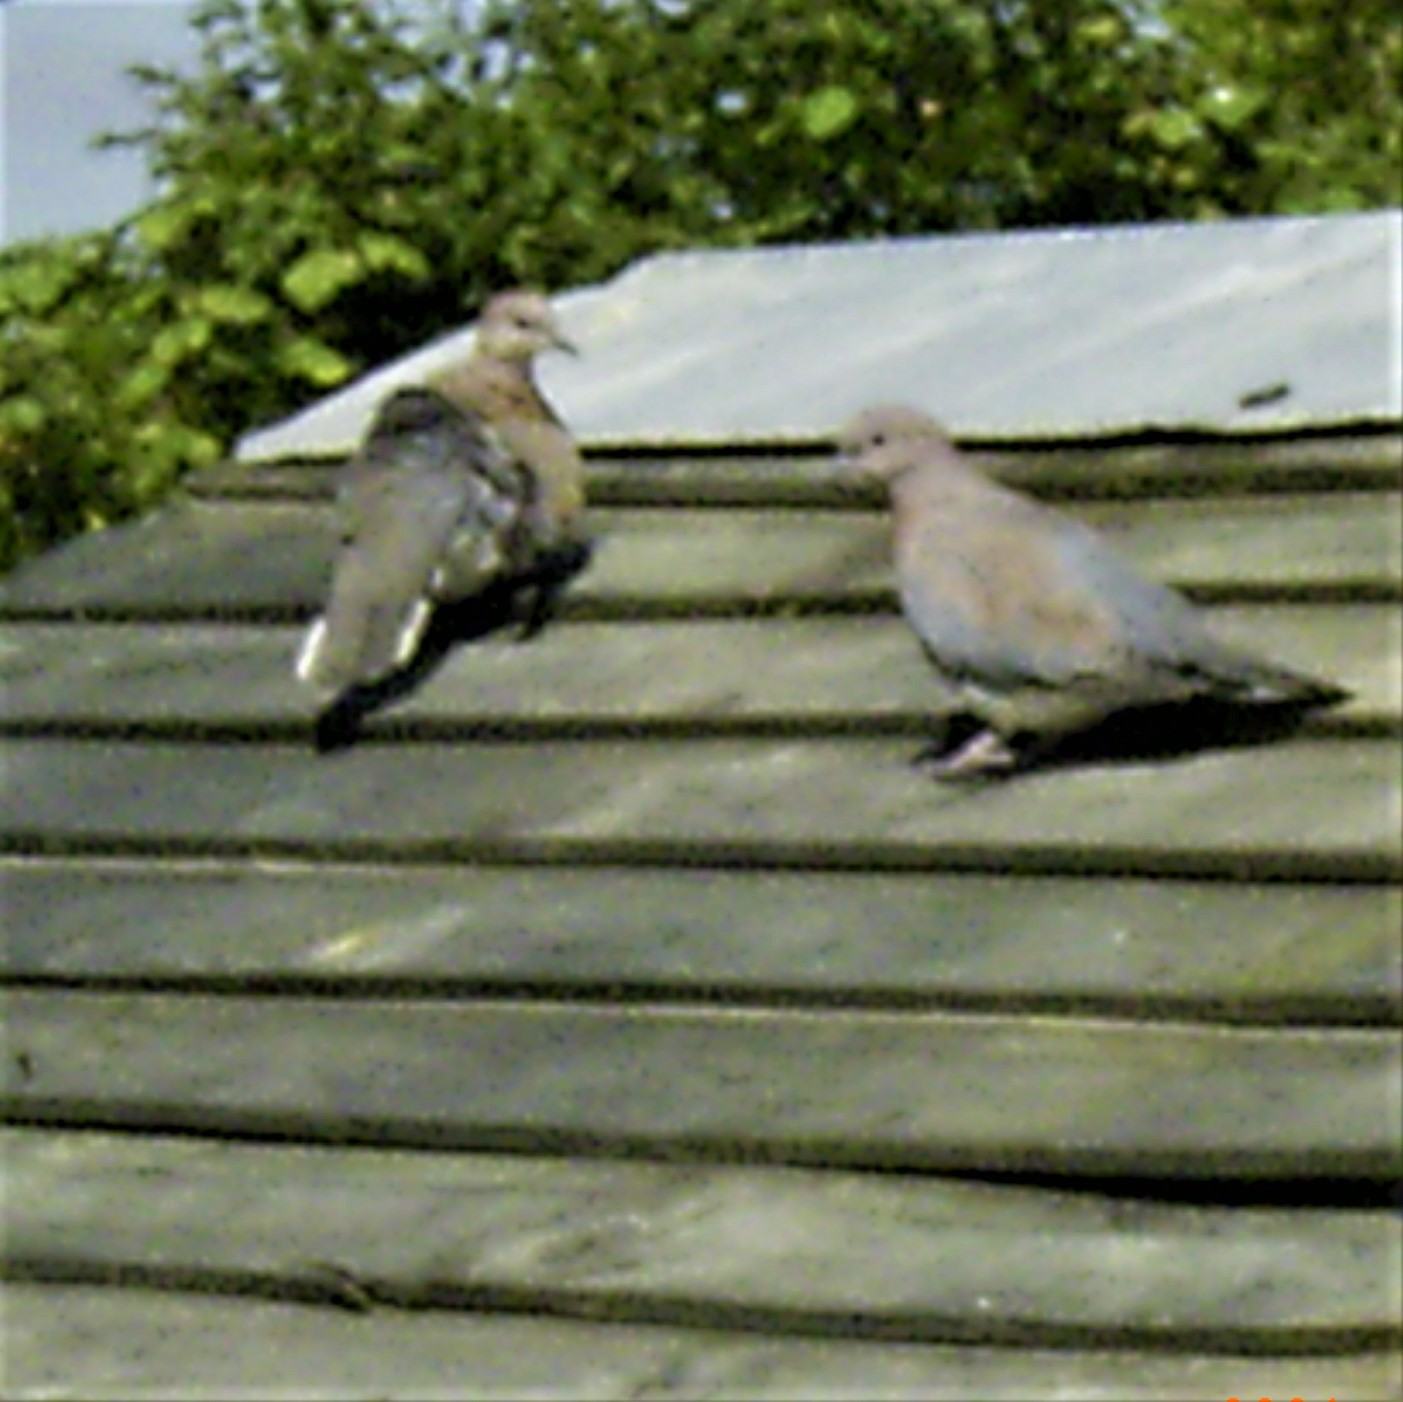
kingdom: Animalia
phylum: Chordata
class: Aves
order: Columbiformes
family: Columbidae
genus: Spilopelia
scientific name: Spilopelia senegalensis
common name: Laughing dove
